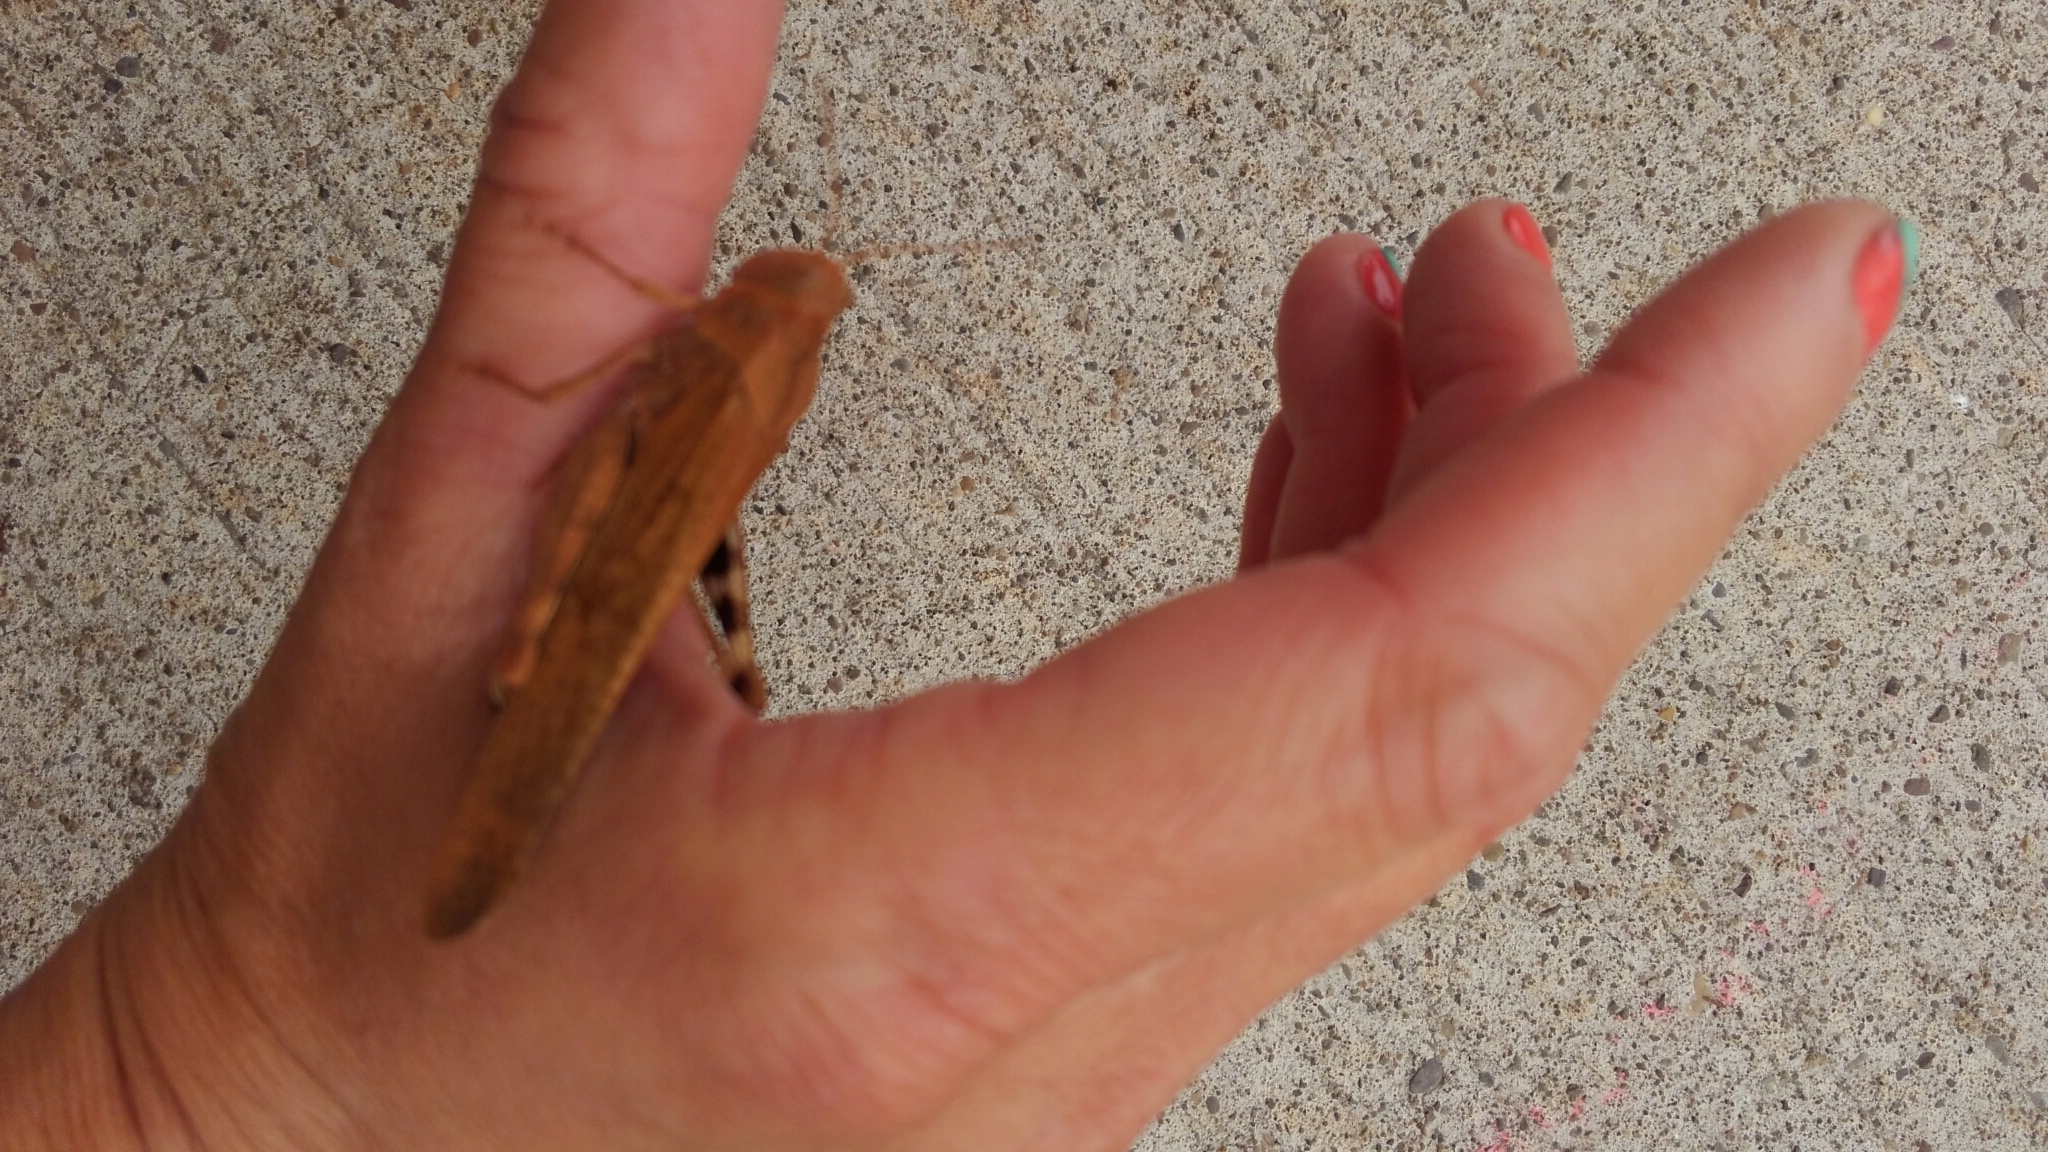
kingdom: Animalia
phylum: Arthropoda
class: Insecta
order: Orthoptera
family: Acrididae
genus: Dissosteira
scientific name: Dissosteira carolina
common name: Carolina grasshopper
